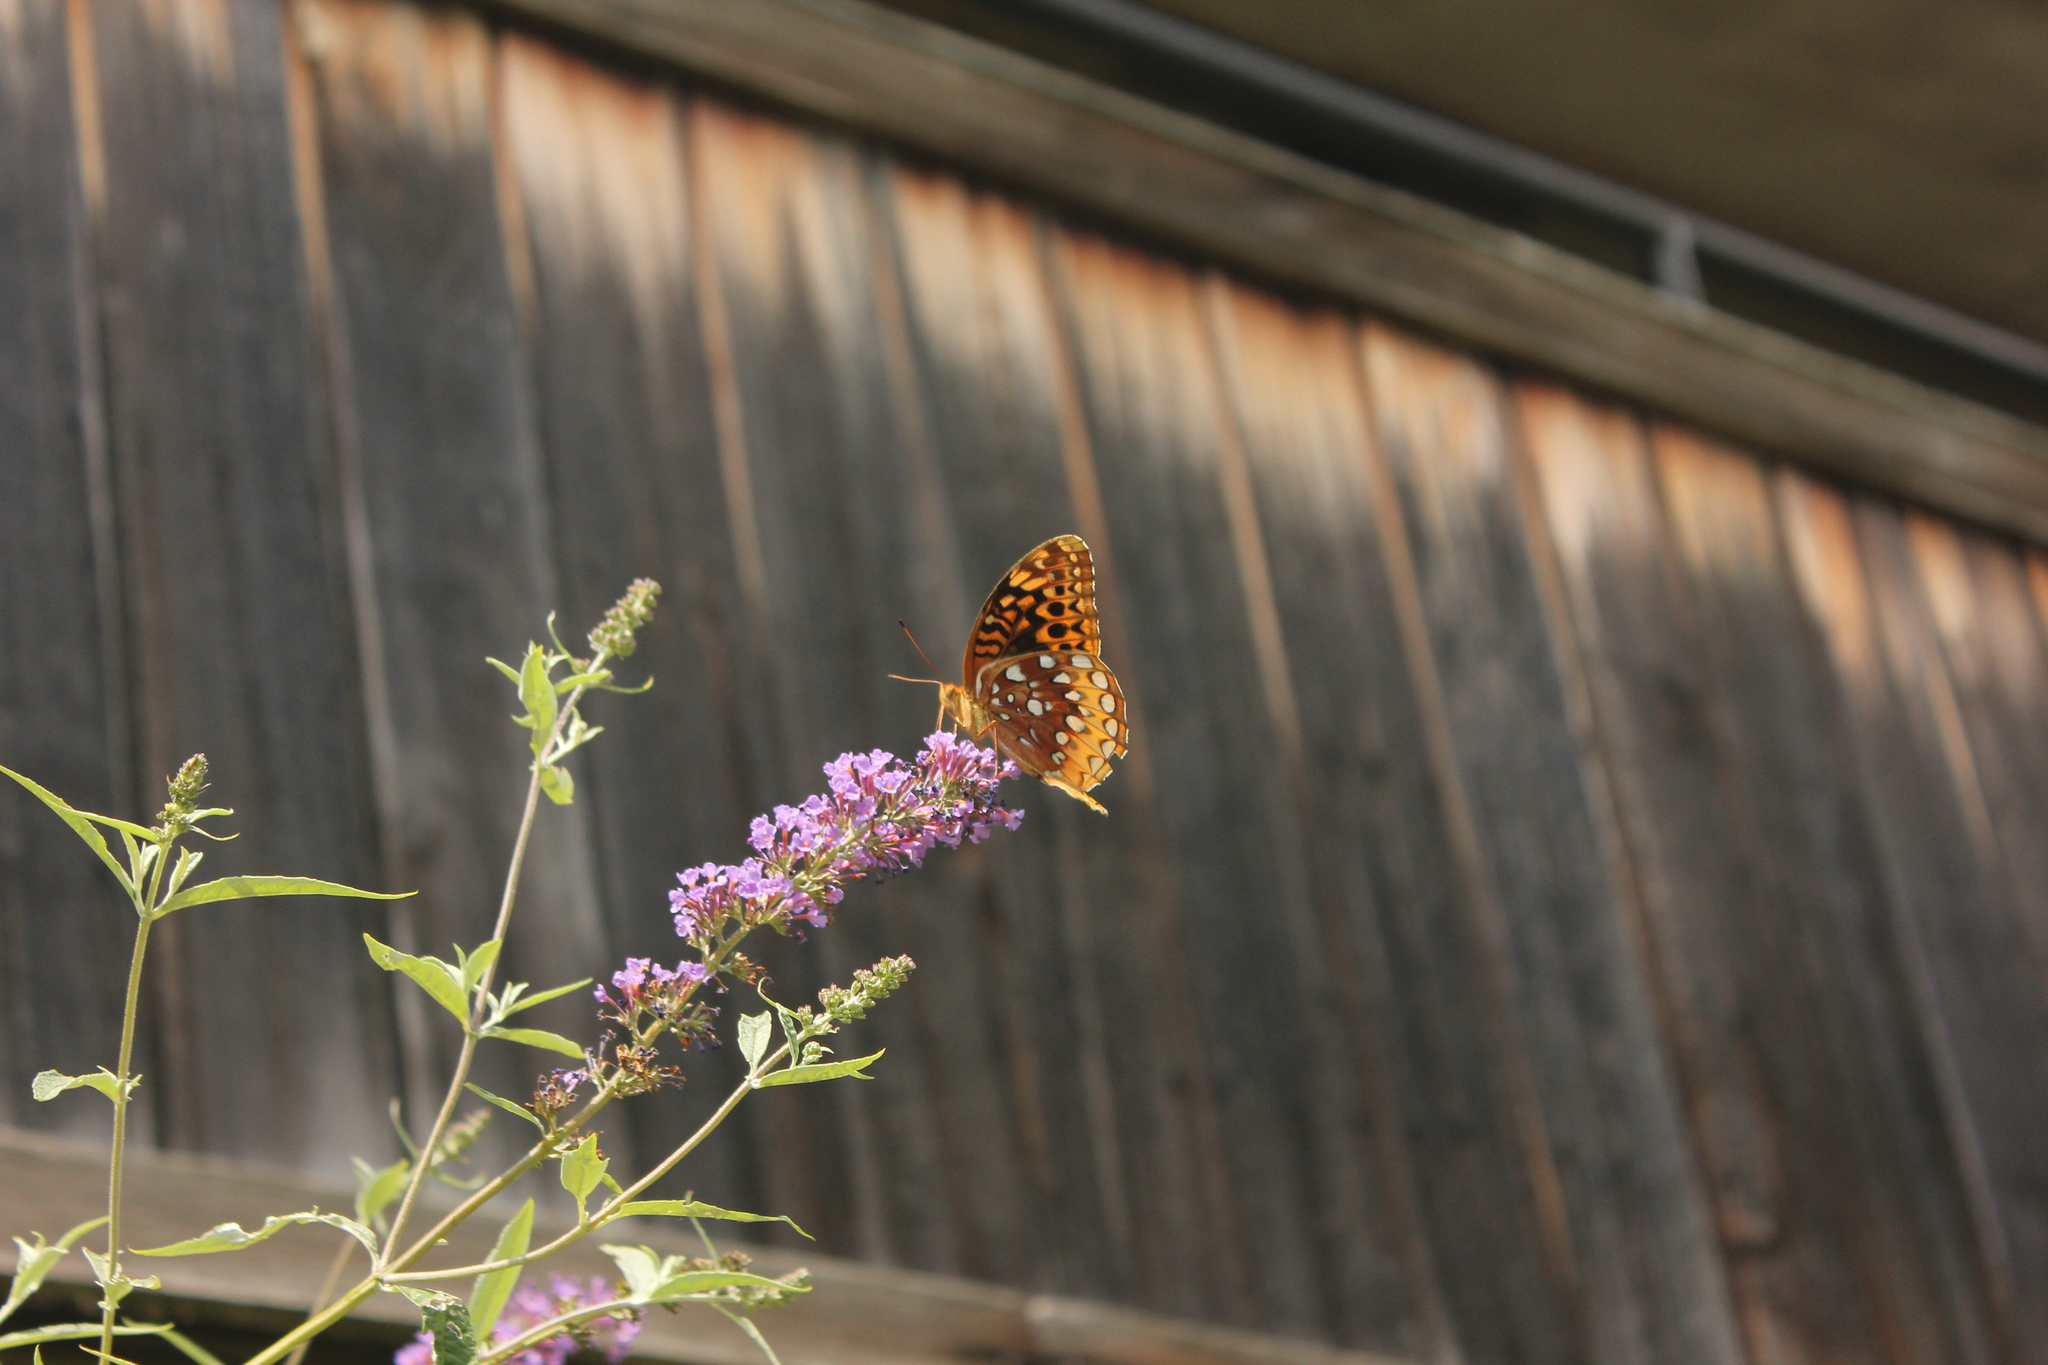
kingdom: Animalia
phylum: Arthropoda
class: Insecta
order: Lepidoptera
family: Nymphalidae
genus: Speyeria
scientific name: Speyeria cybele
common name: Great spangled fritillary
